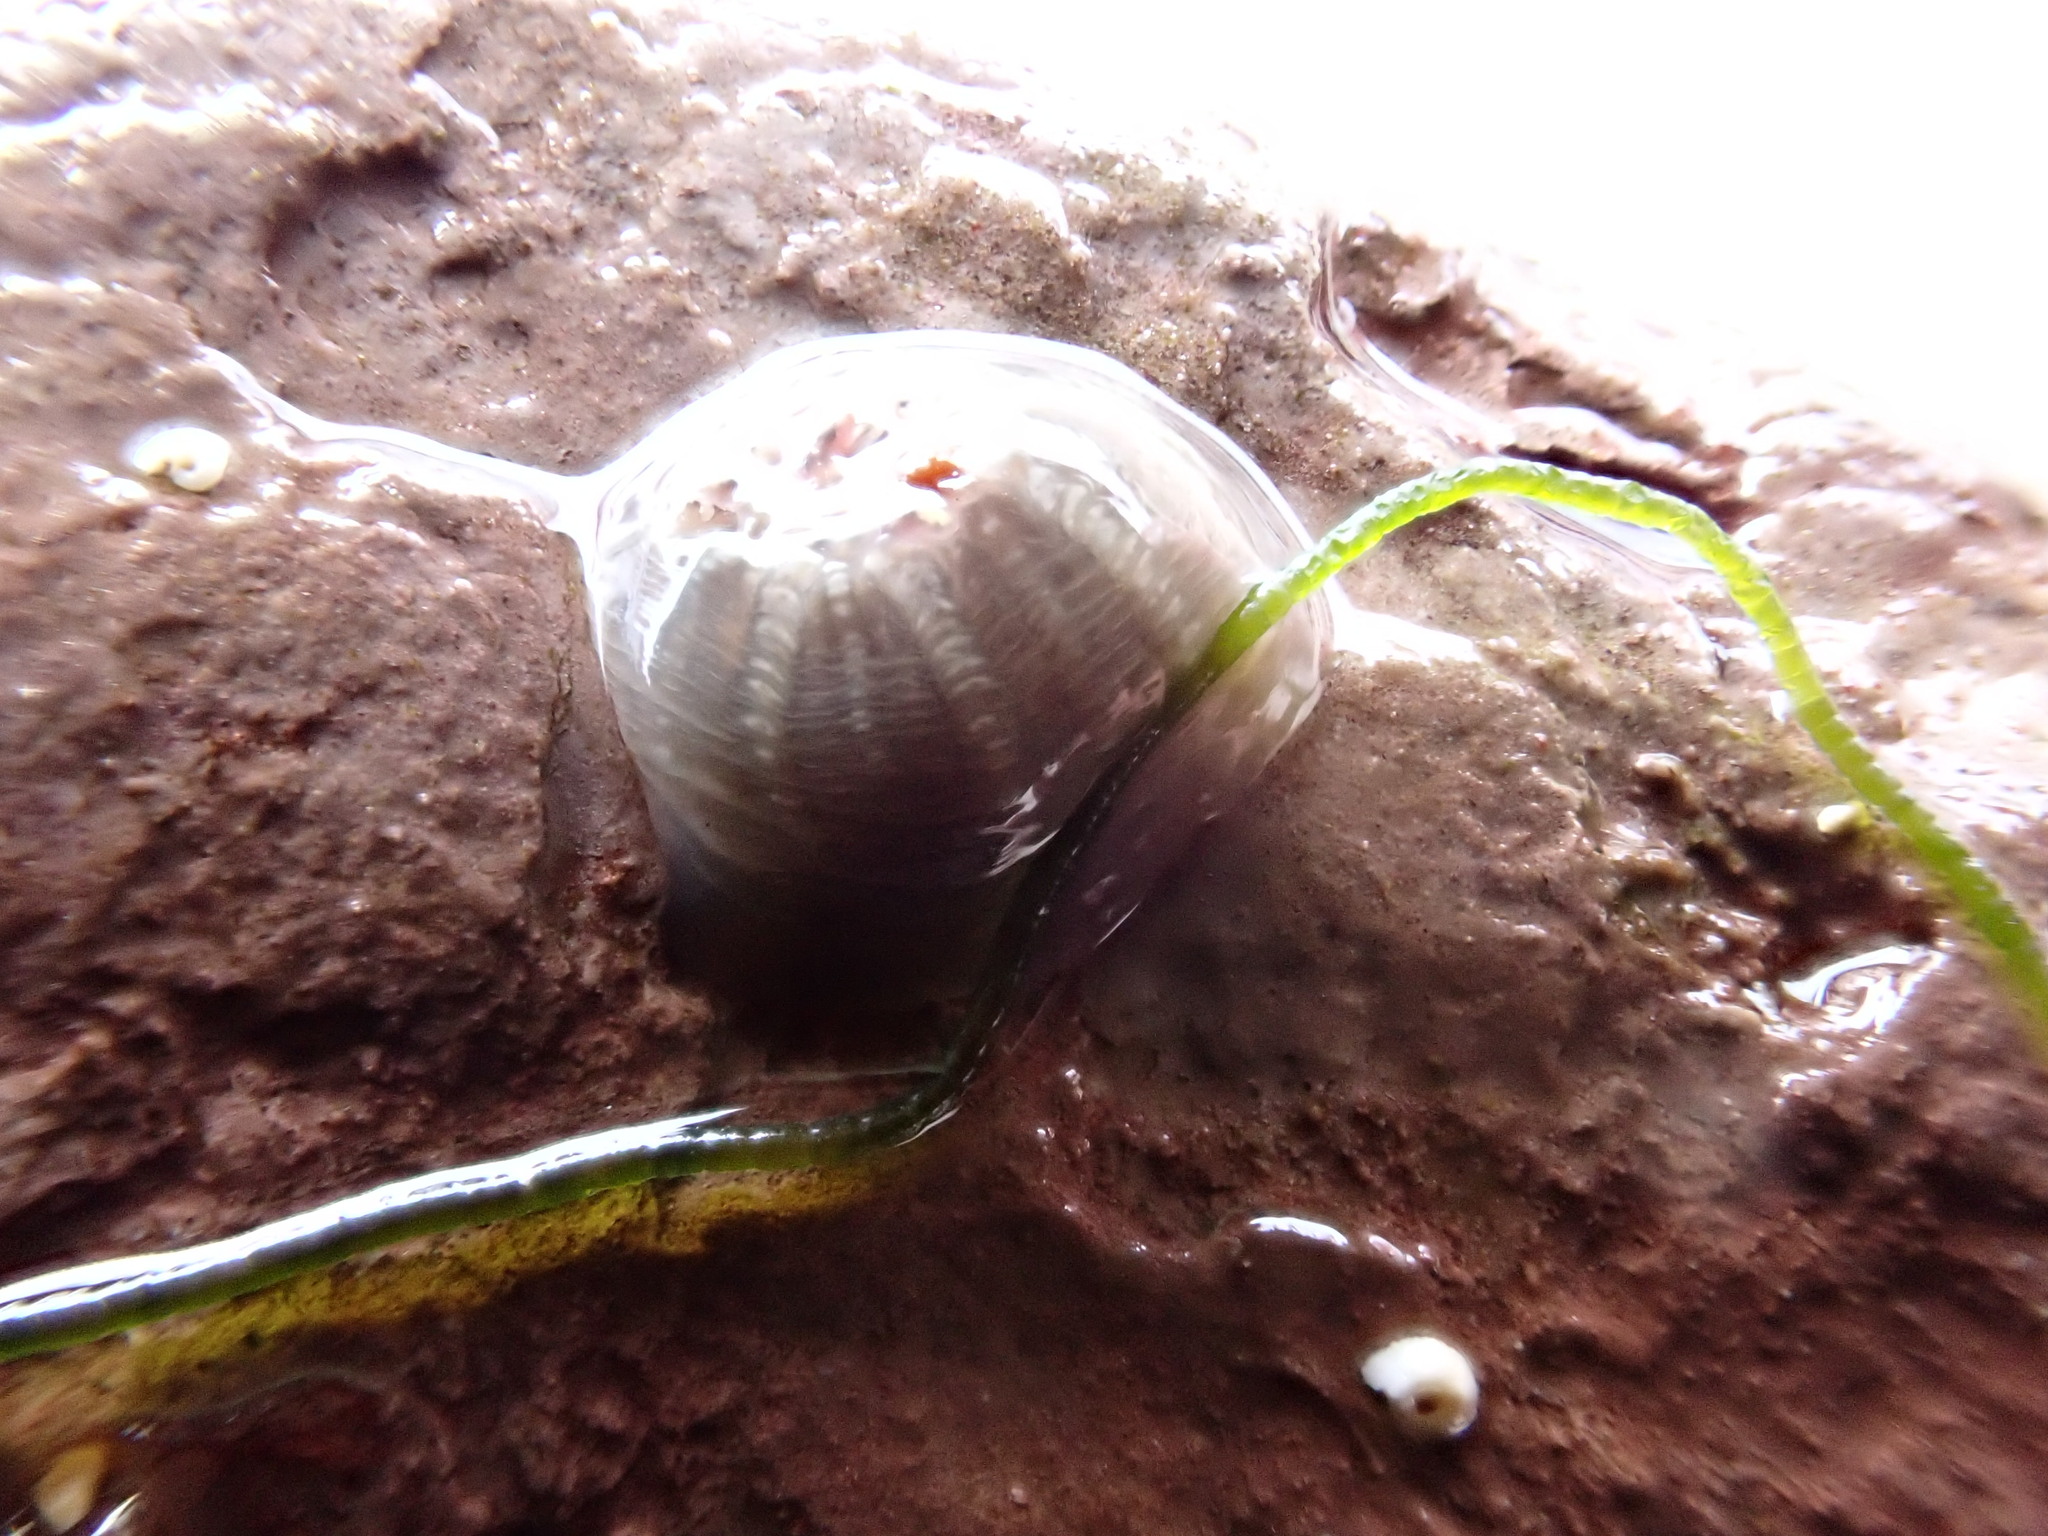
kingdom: Animalia
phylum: Cnidaria
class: Anthozoa
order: Actiniaria
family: Actiniidae
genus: Bunodactis
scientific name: Bunodactis verrucosa
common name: Gem anemone
